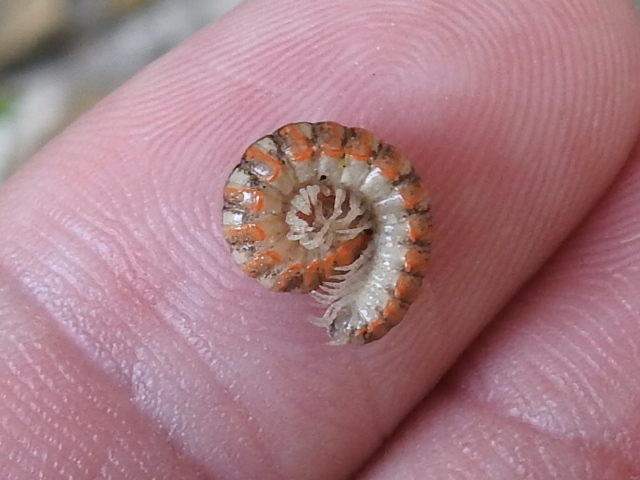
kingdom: Animalia
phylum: Arthropoda
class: Diplopoda
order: Polydesmida
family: Xystodesmidae
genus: Eurymerodesmus
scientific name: Eurymerodesmus melacis
